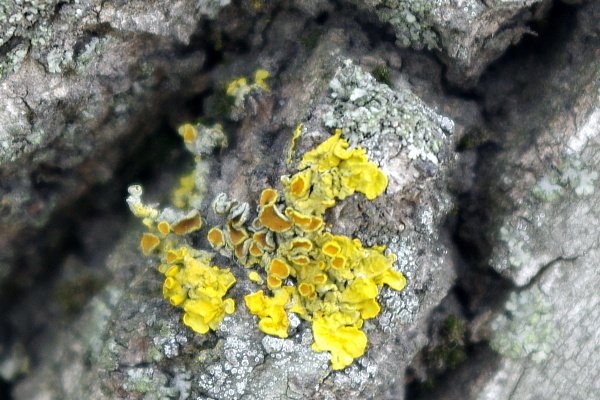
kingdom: Fungi
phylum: Ascomycota
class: Lecanoromycetes
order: Teloschistales
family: Teloschistaceae
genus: Xanthoria
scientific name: Xanthoria parietina
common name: Common orange lichen
